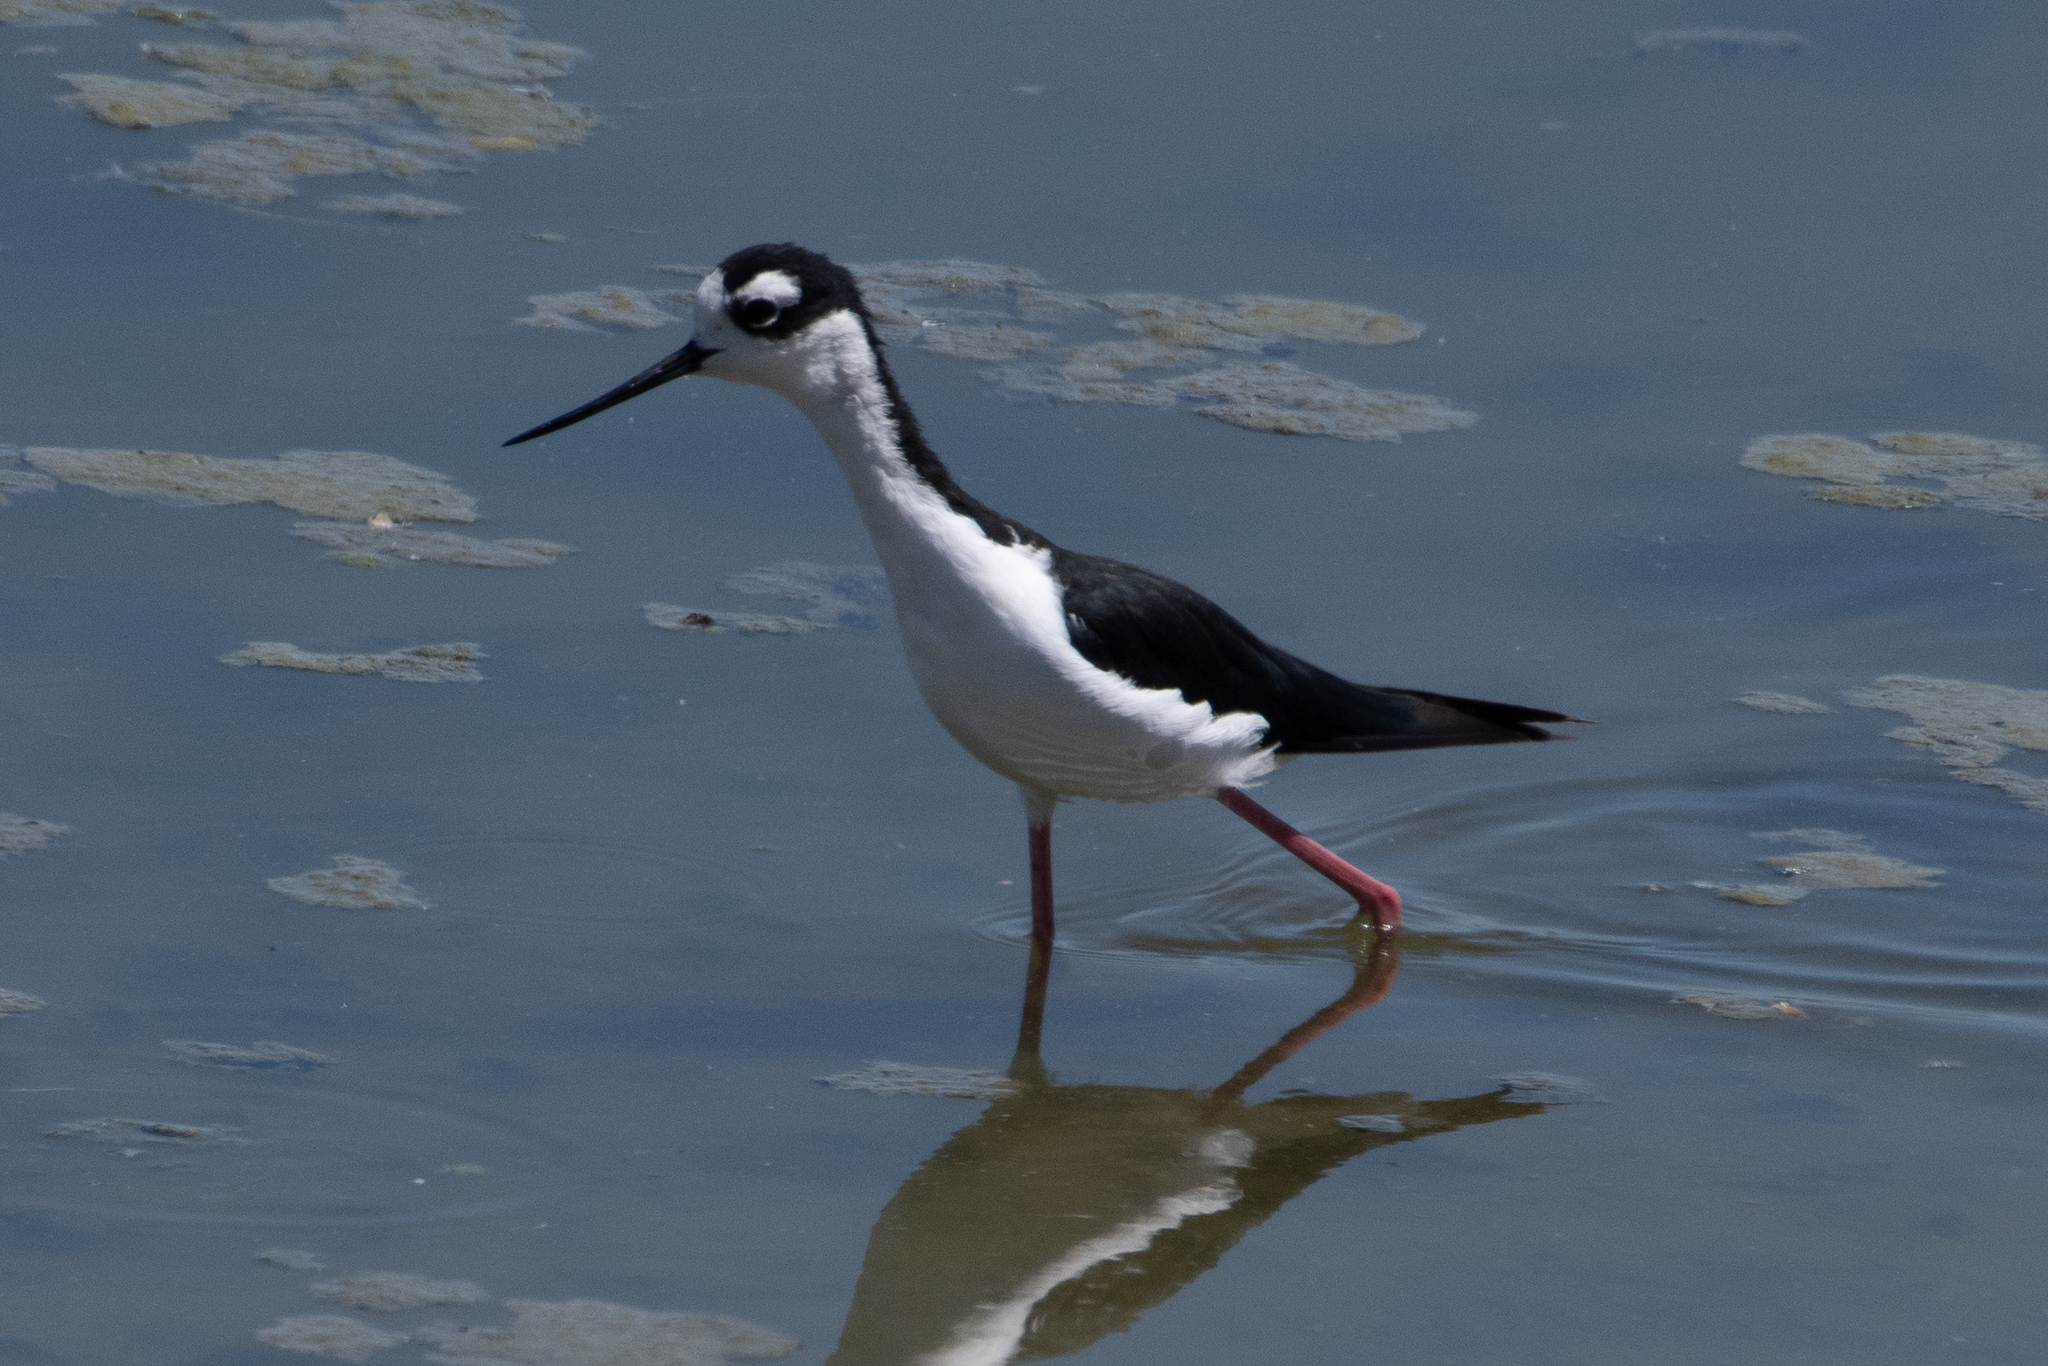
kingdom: Animalia
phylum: Chordata
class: Aves
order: Charadriiformes
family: Recurvirostridae
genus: Himantopus
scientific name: Himantopus mexicanus
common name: Black-necked stilt
